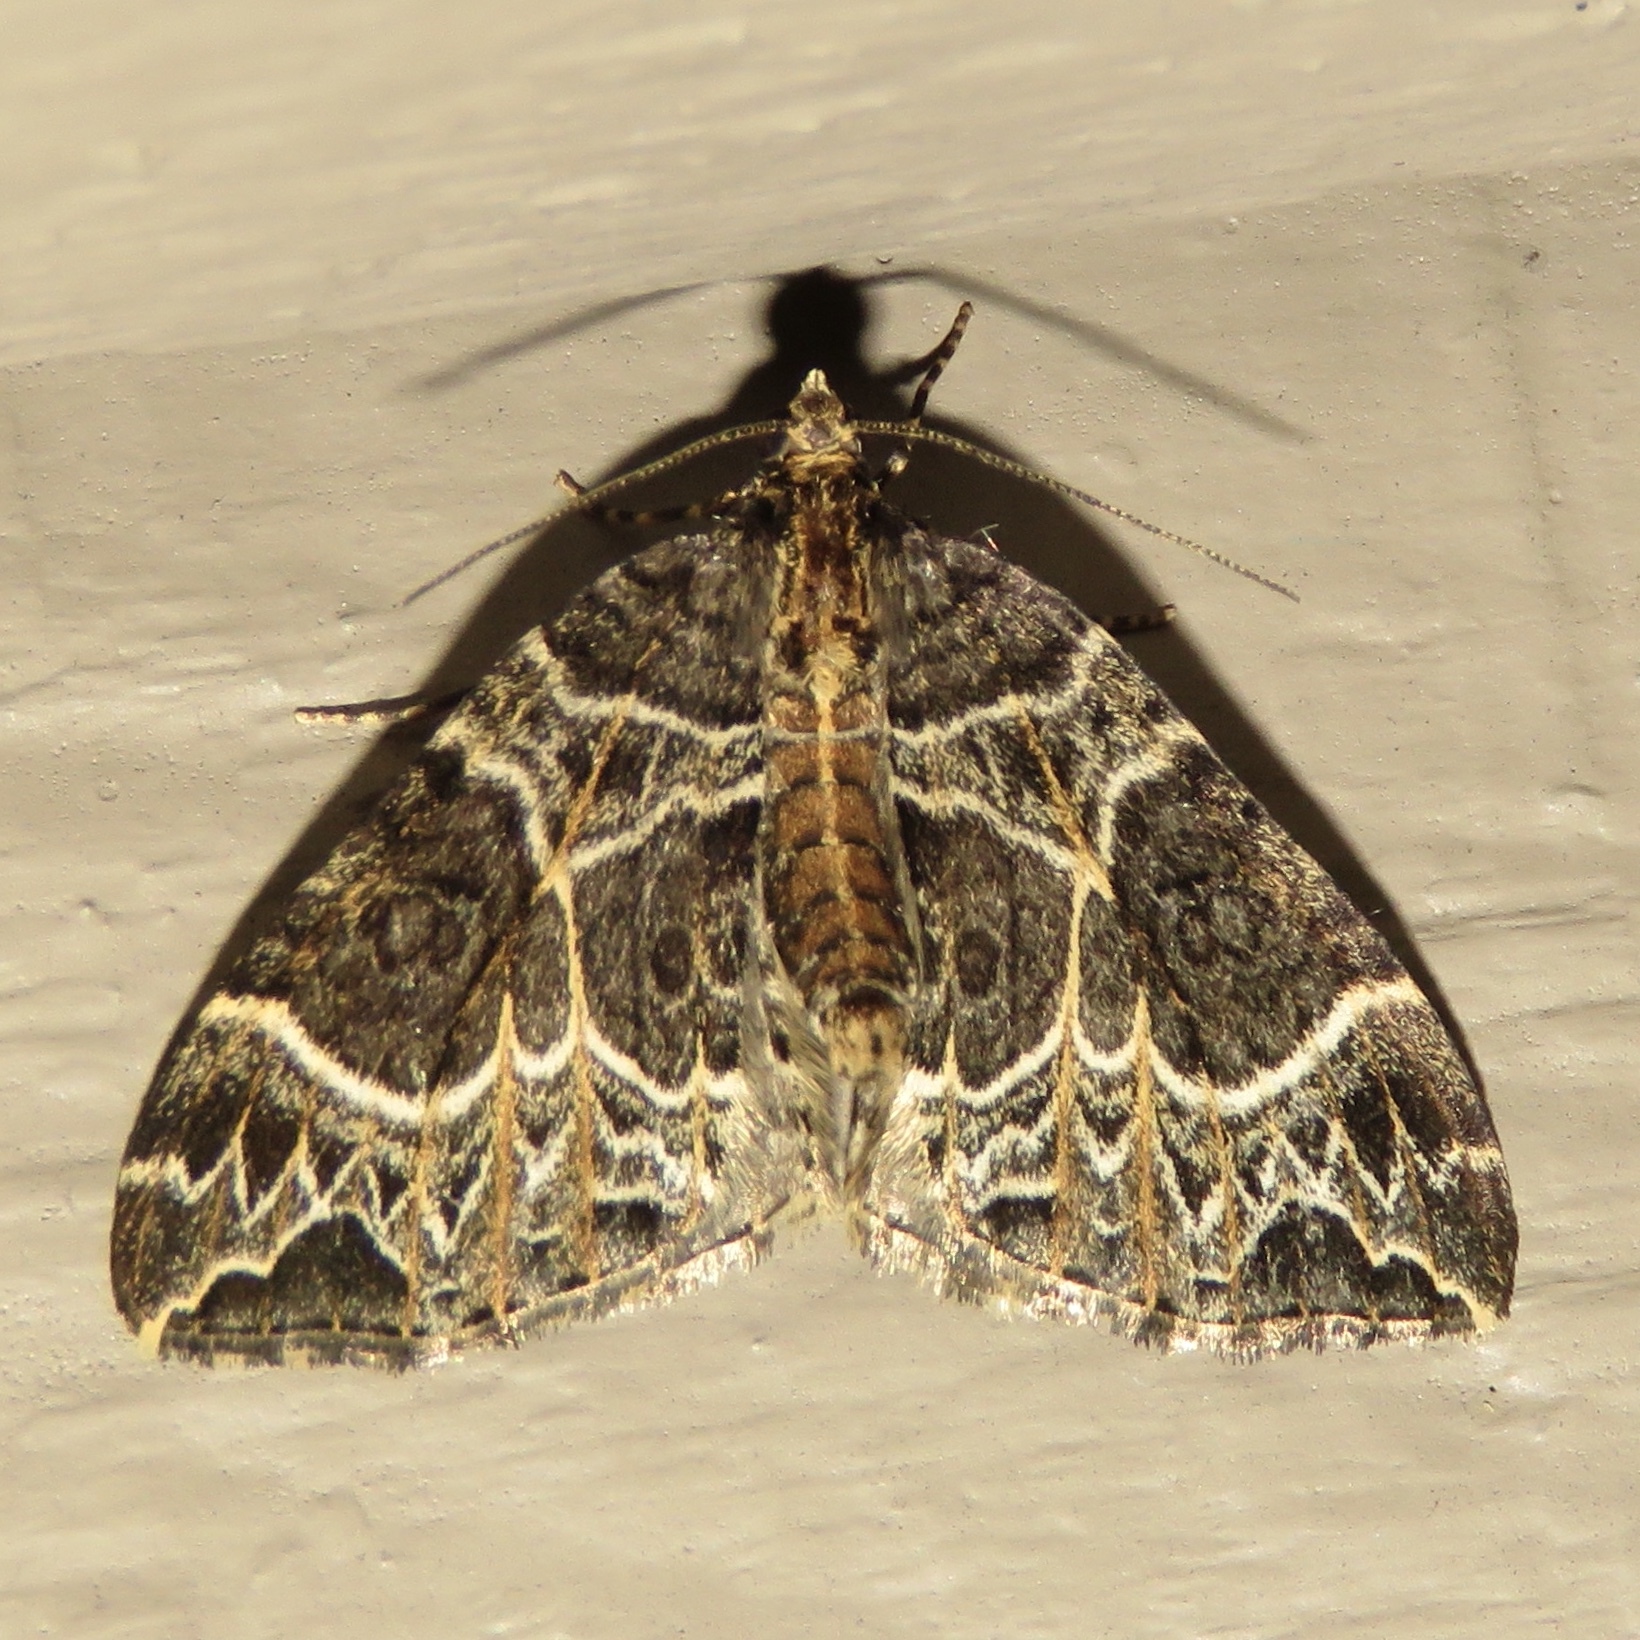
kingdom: Animalia
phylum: Arthropoda
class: Insecta
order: Lepidoptera
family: Geometridae
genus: Ecliptopera
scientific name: Ecliptopera silaceata
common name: Small phoenix
